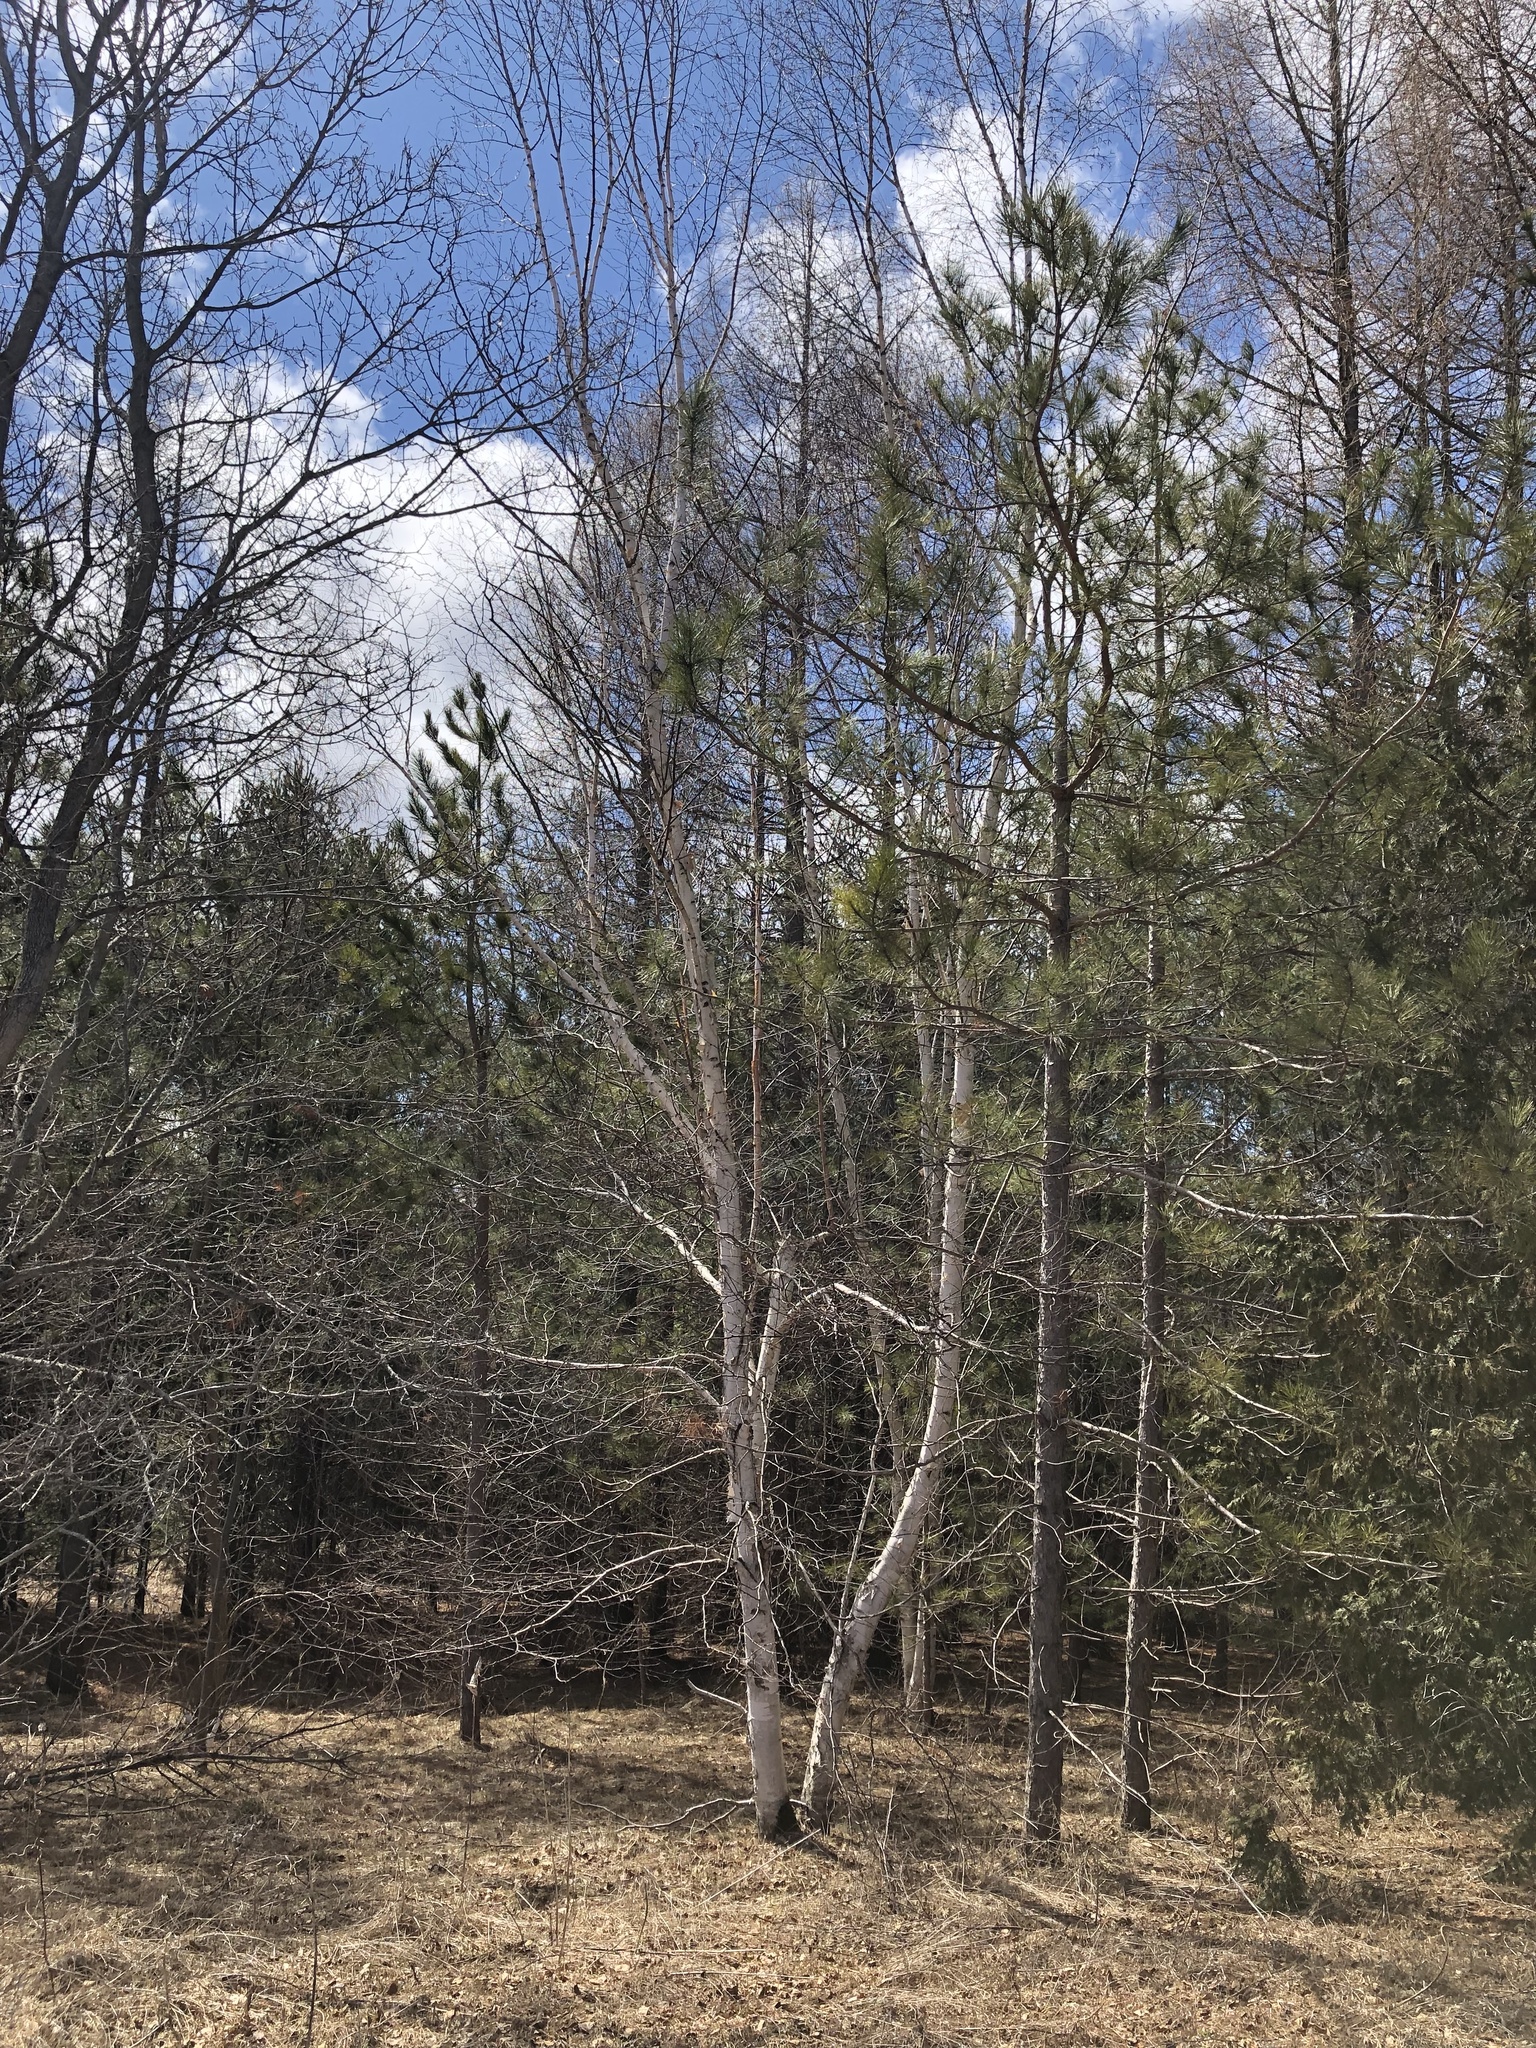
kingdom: Plantae
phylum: Tracheophyta
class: Magnoliopsida
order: Fagales
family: Betulaceae
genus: Betula
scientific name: Betula papyrifera
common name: Paper birch
